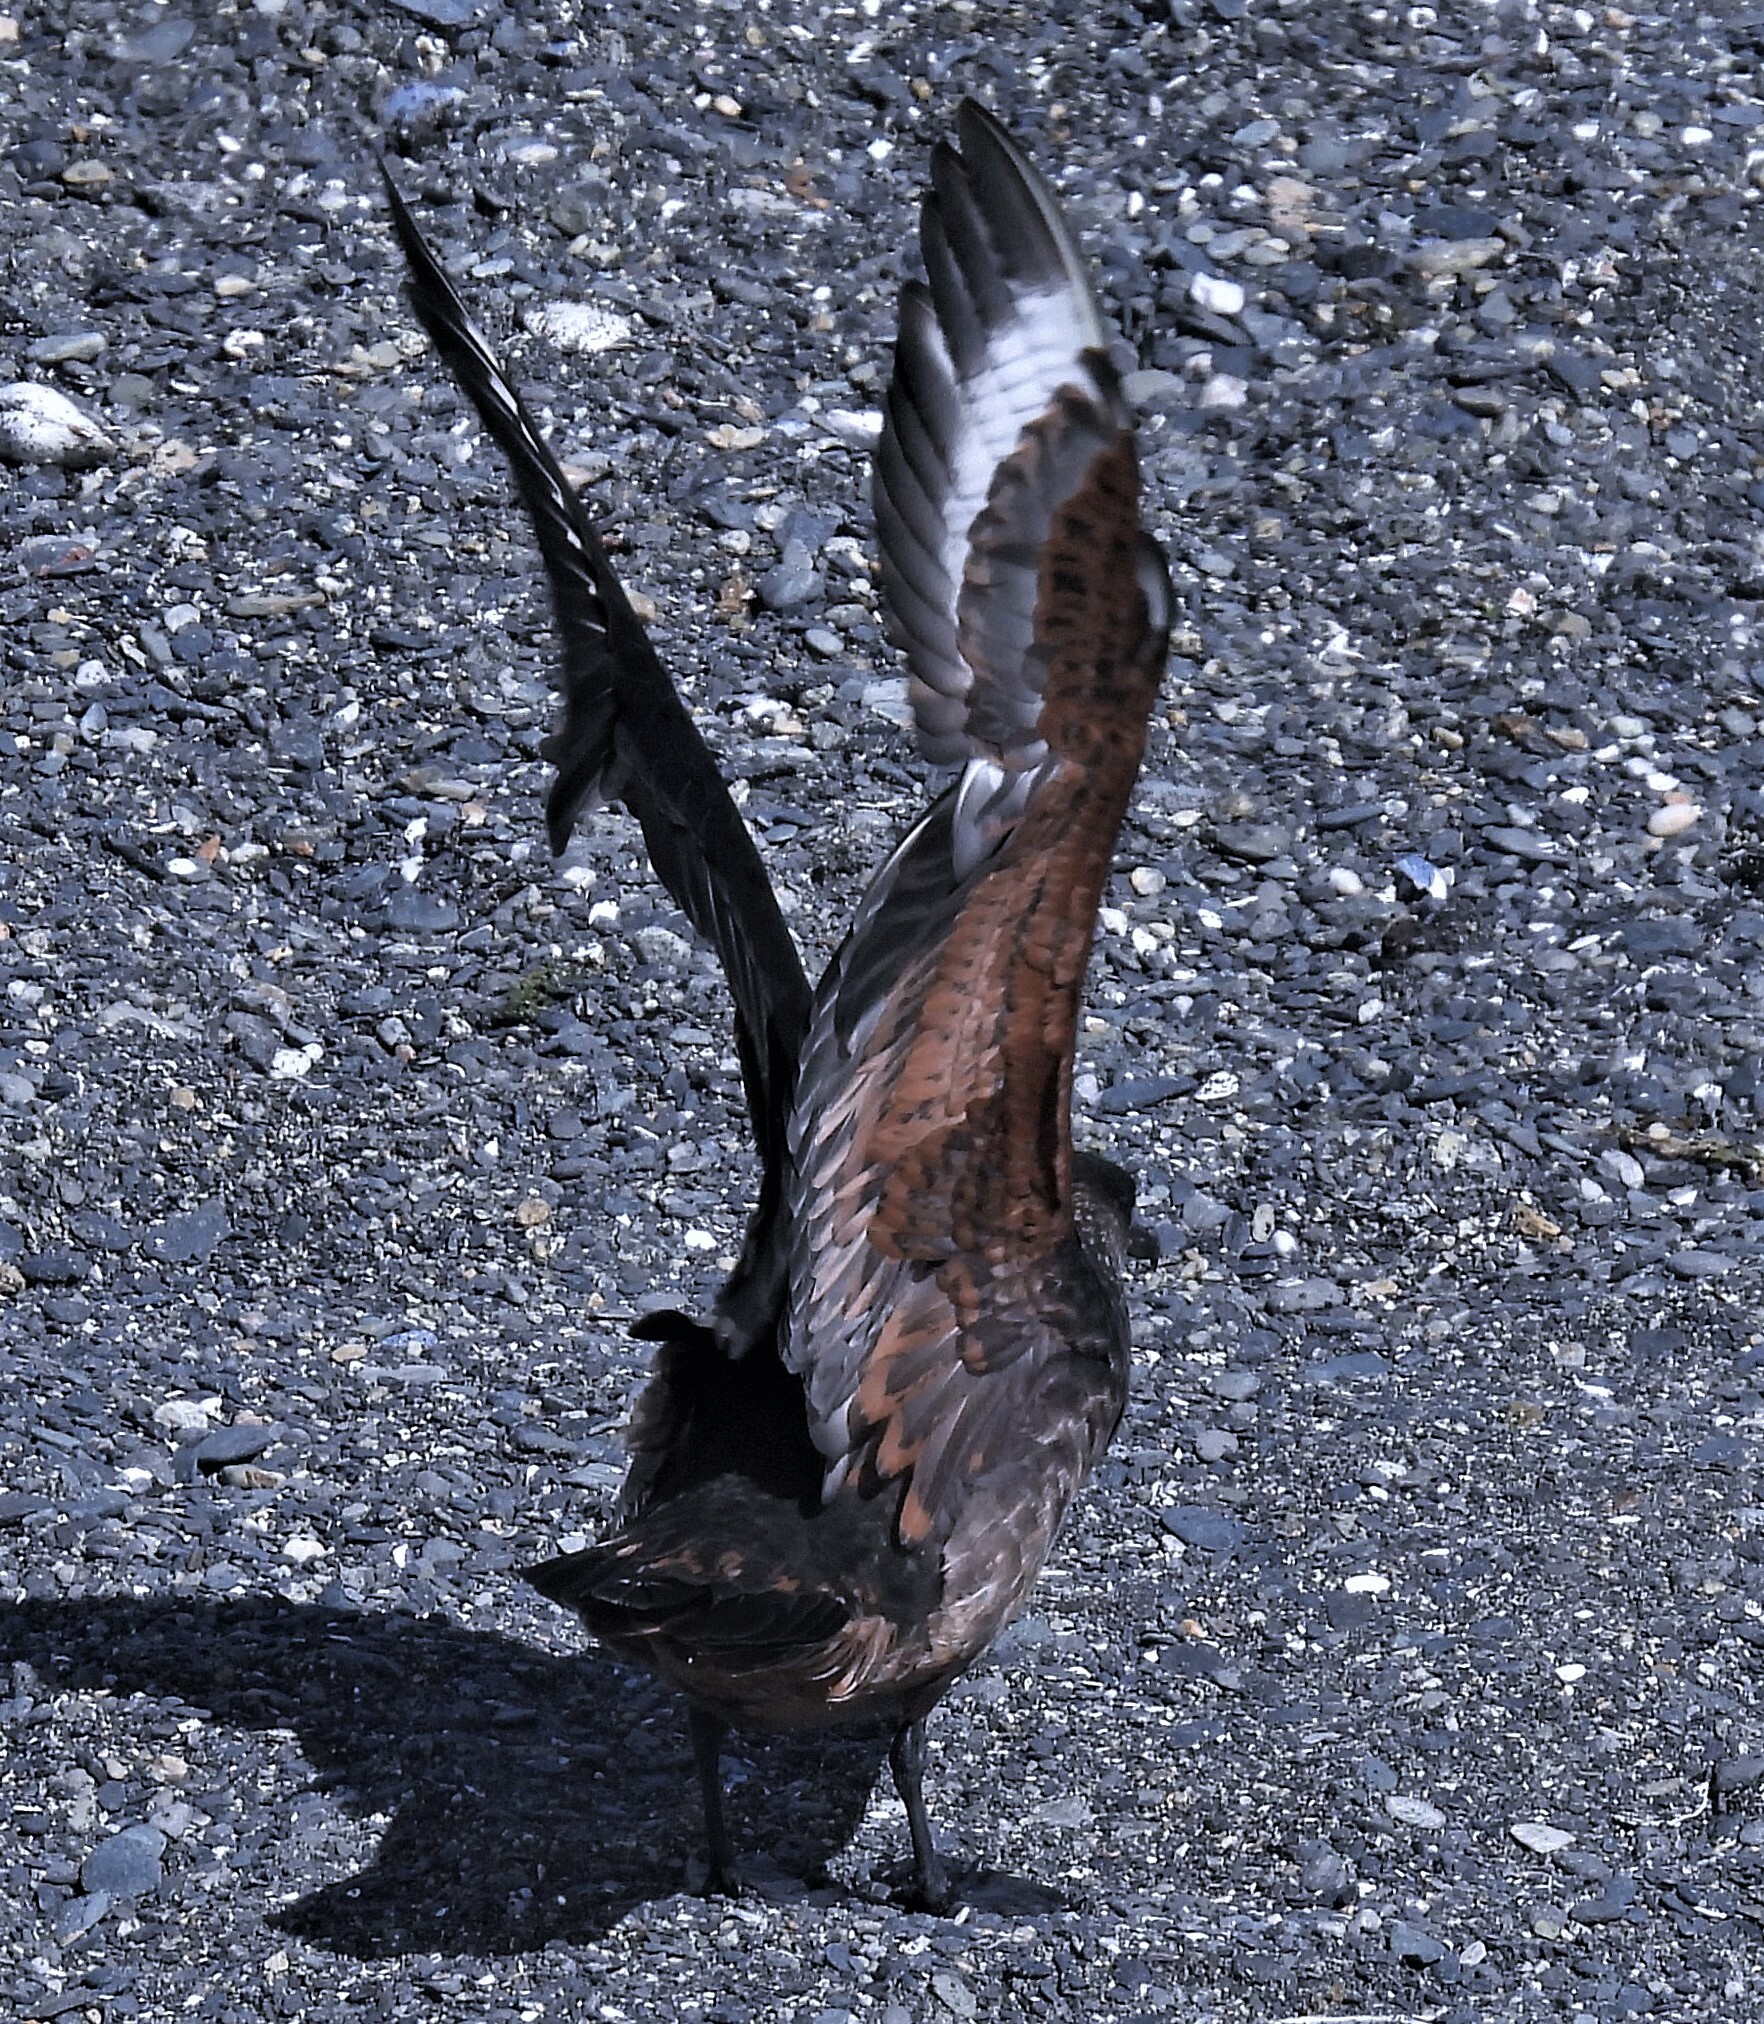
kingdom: Animalia
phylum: Chordata
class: Aves
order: Charadriiformes
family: Stercorariidae
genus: Stercorarius
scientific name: Stercorarius chilensis
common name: Chilean skua
